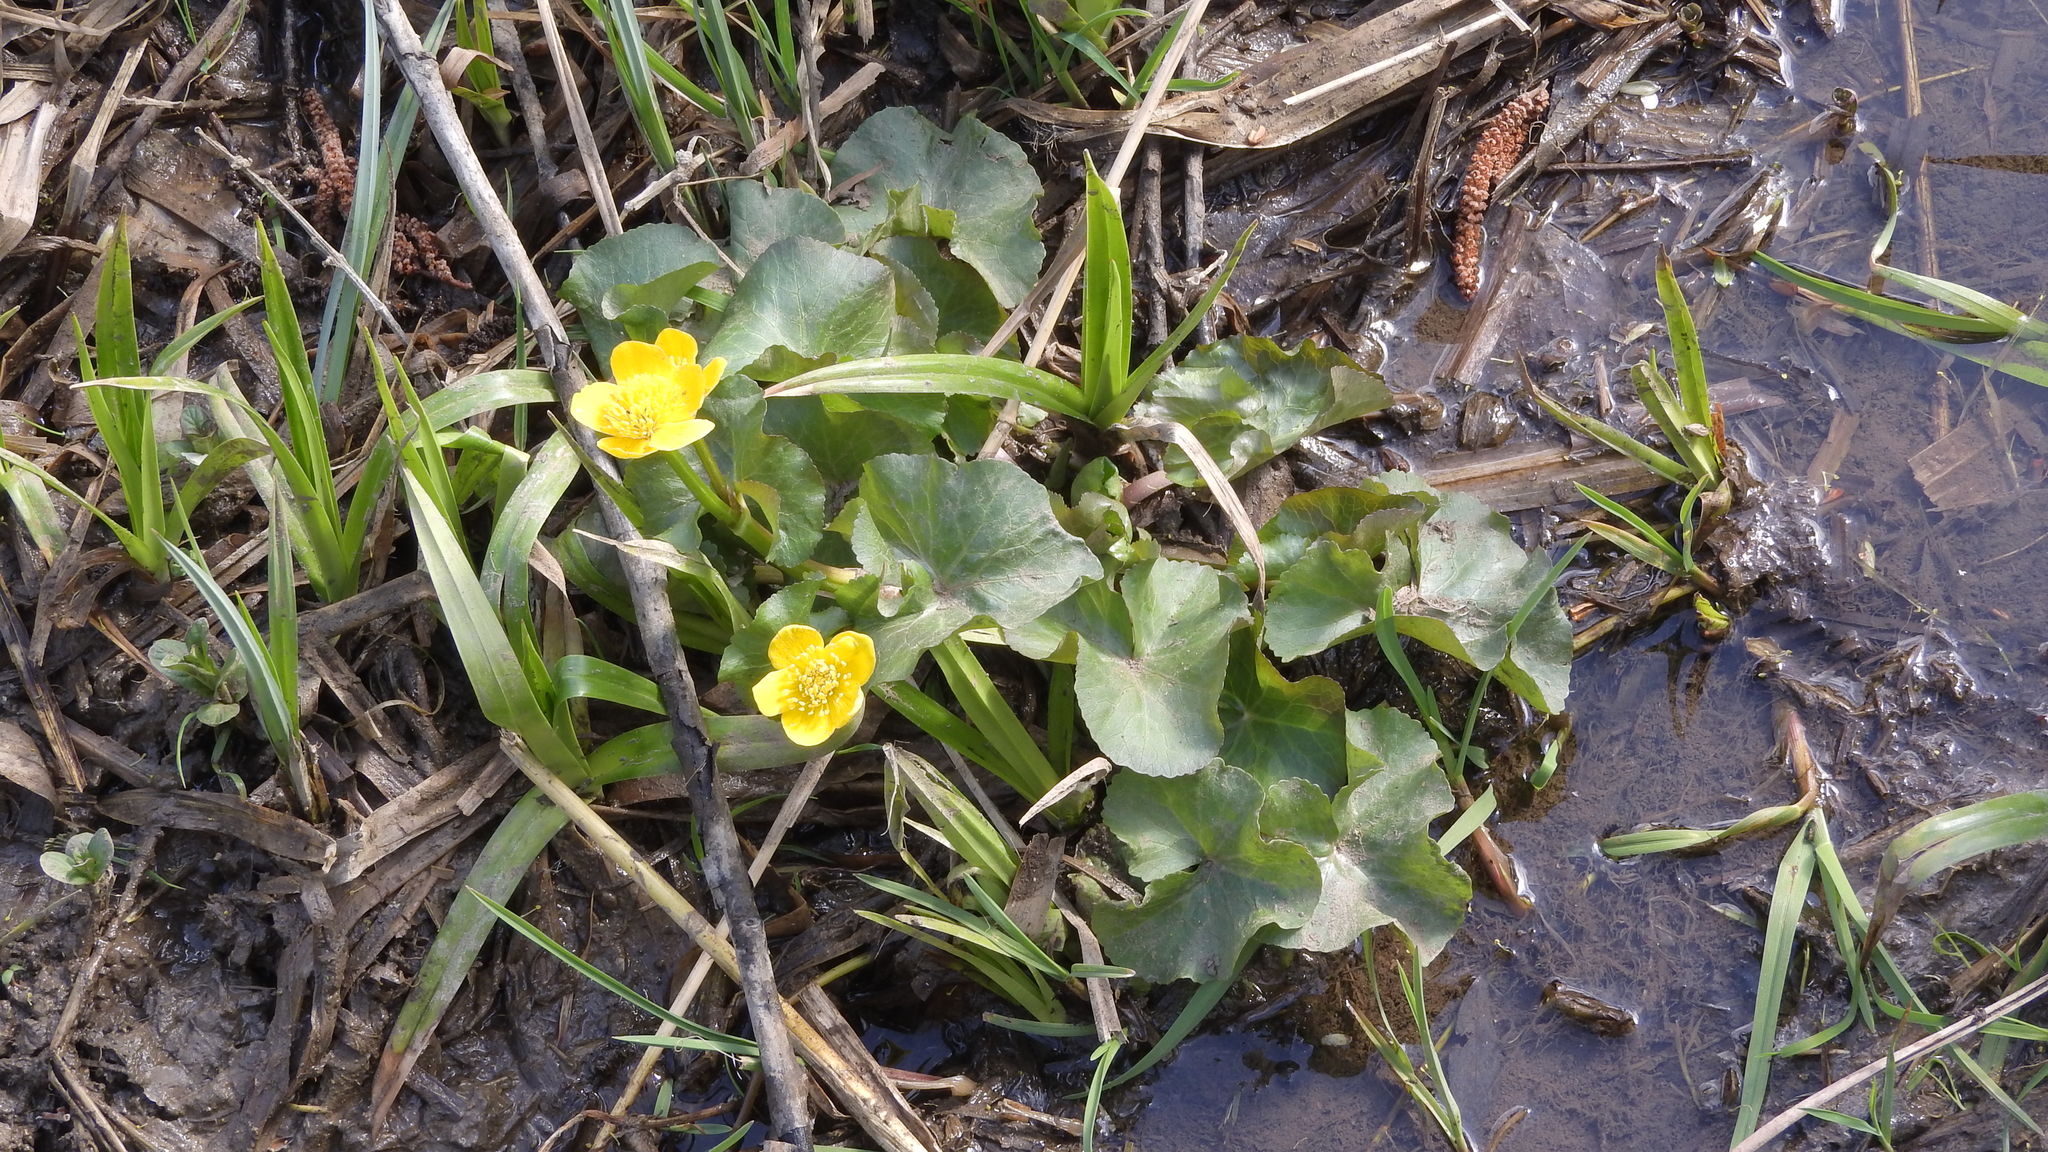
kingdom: Plantae
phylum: Tracheophyta
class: Magnoliopsida
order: Ranunculales
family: Ranunculaceae
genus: Caltha
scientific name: Caltha palustris
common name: Marsh marigold
